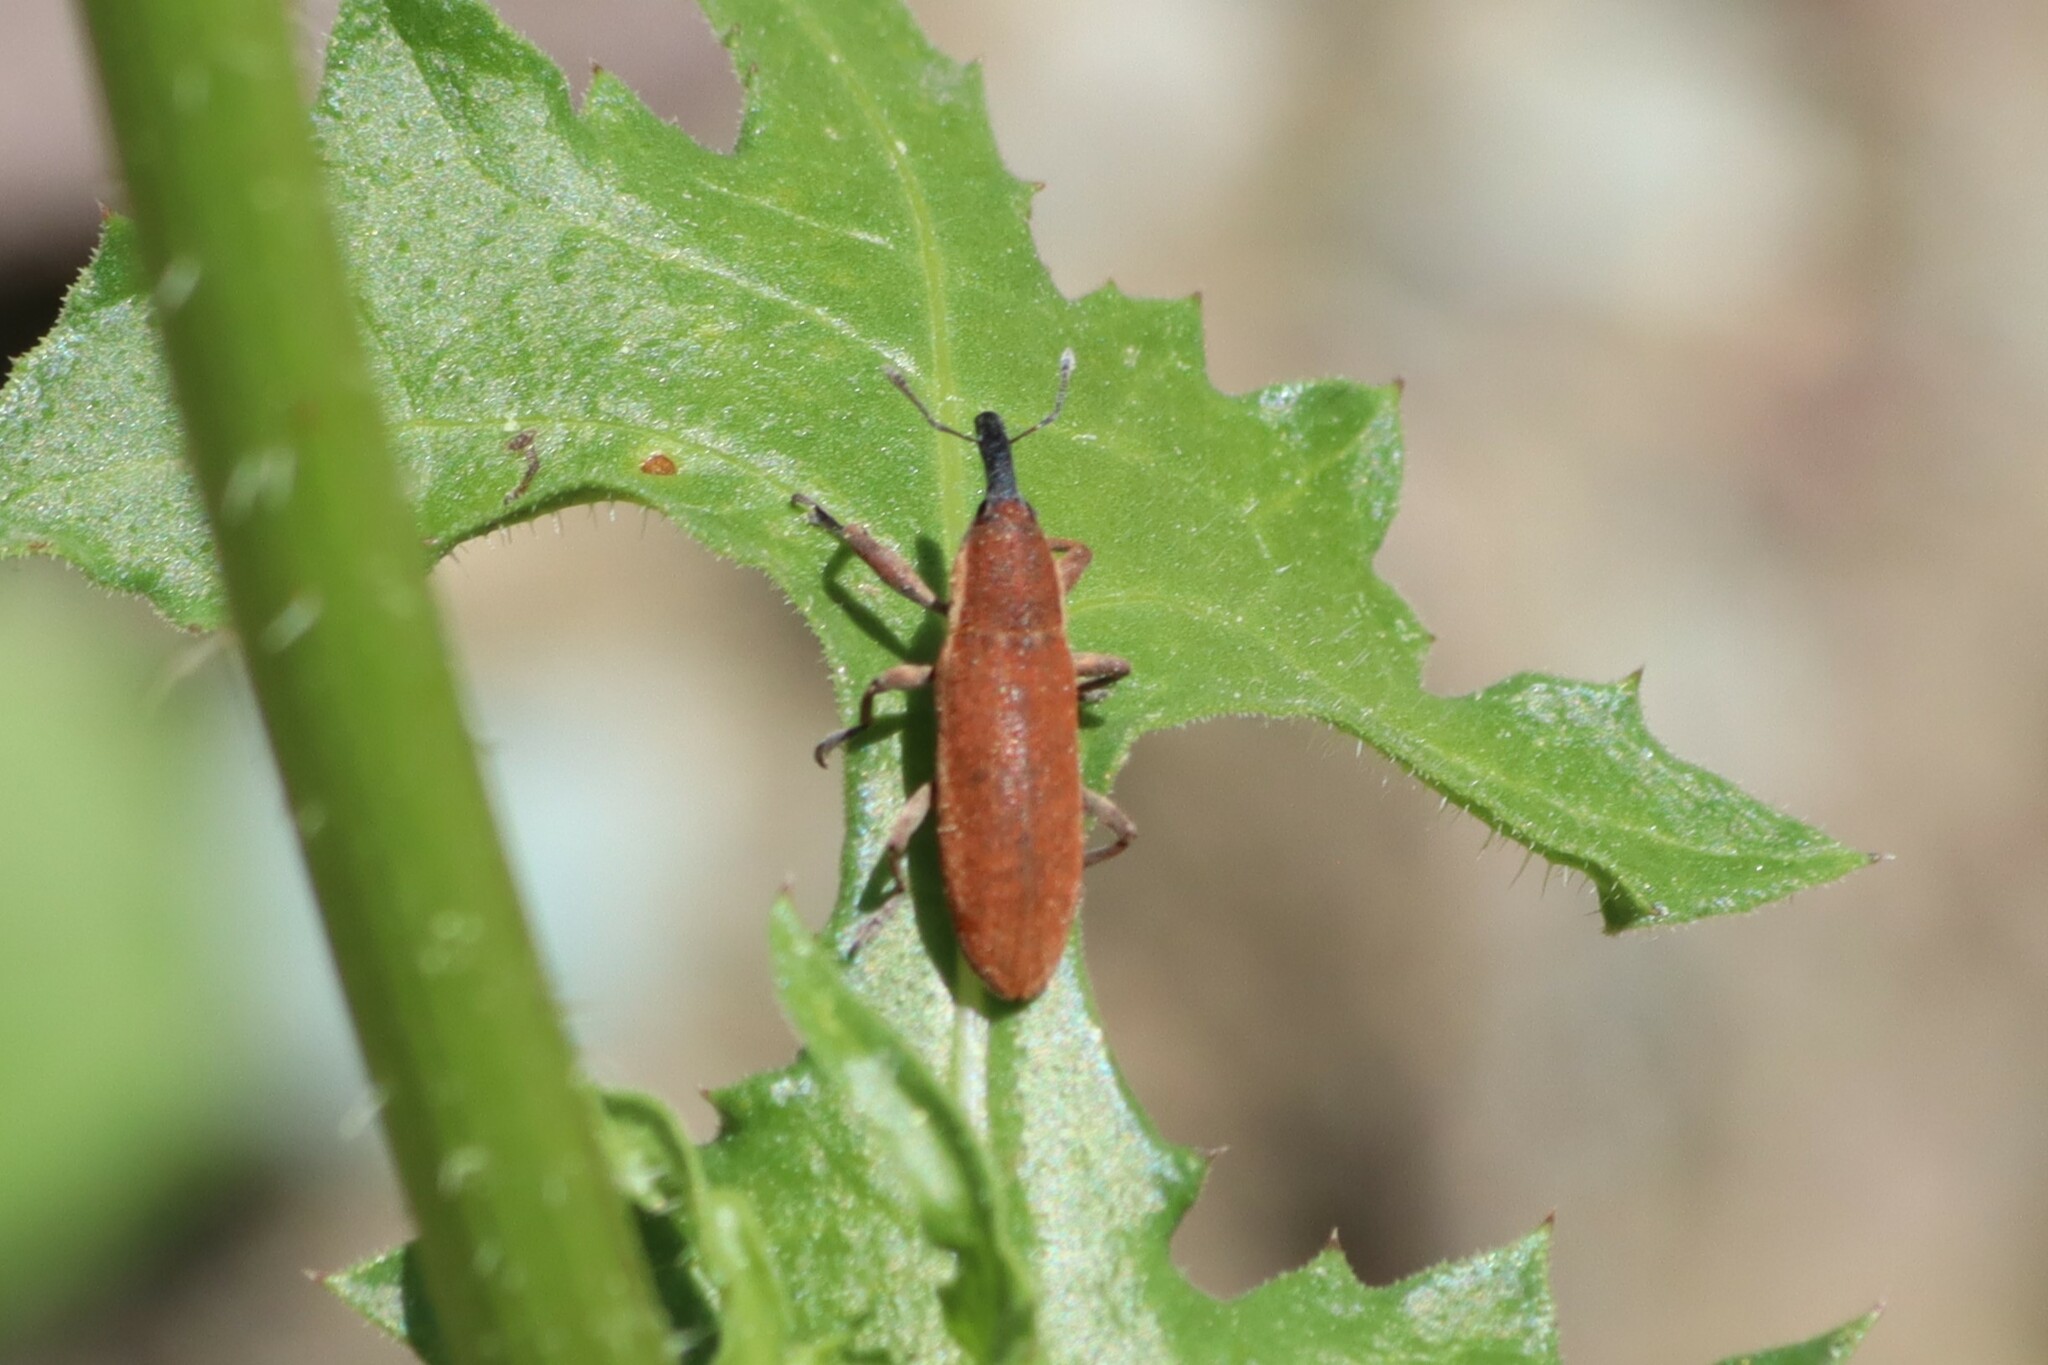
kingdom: Animalia
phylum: Arthropoda
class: Insecta
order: Coleoptera
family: Curculionidae
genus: Lixus
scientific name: Lixus punctiventris
